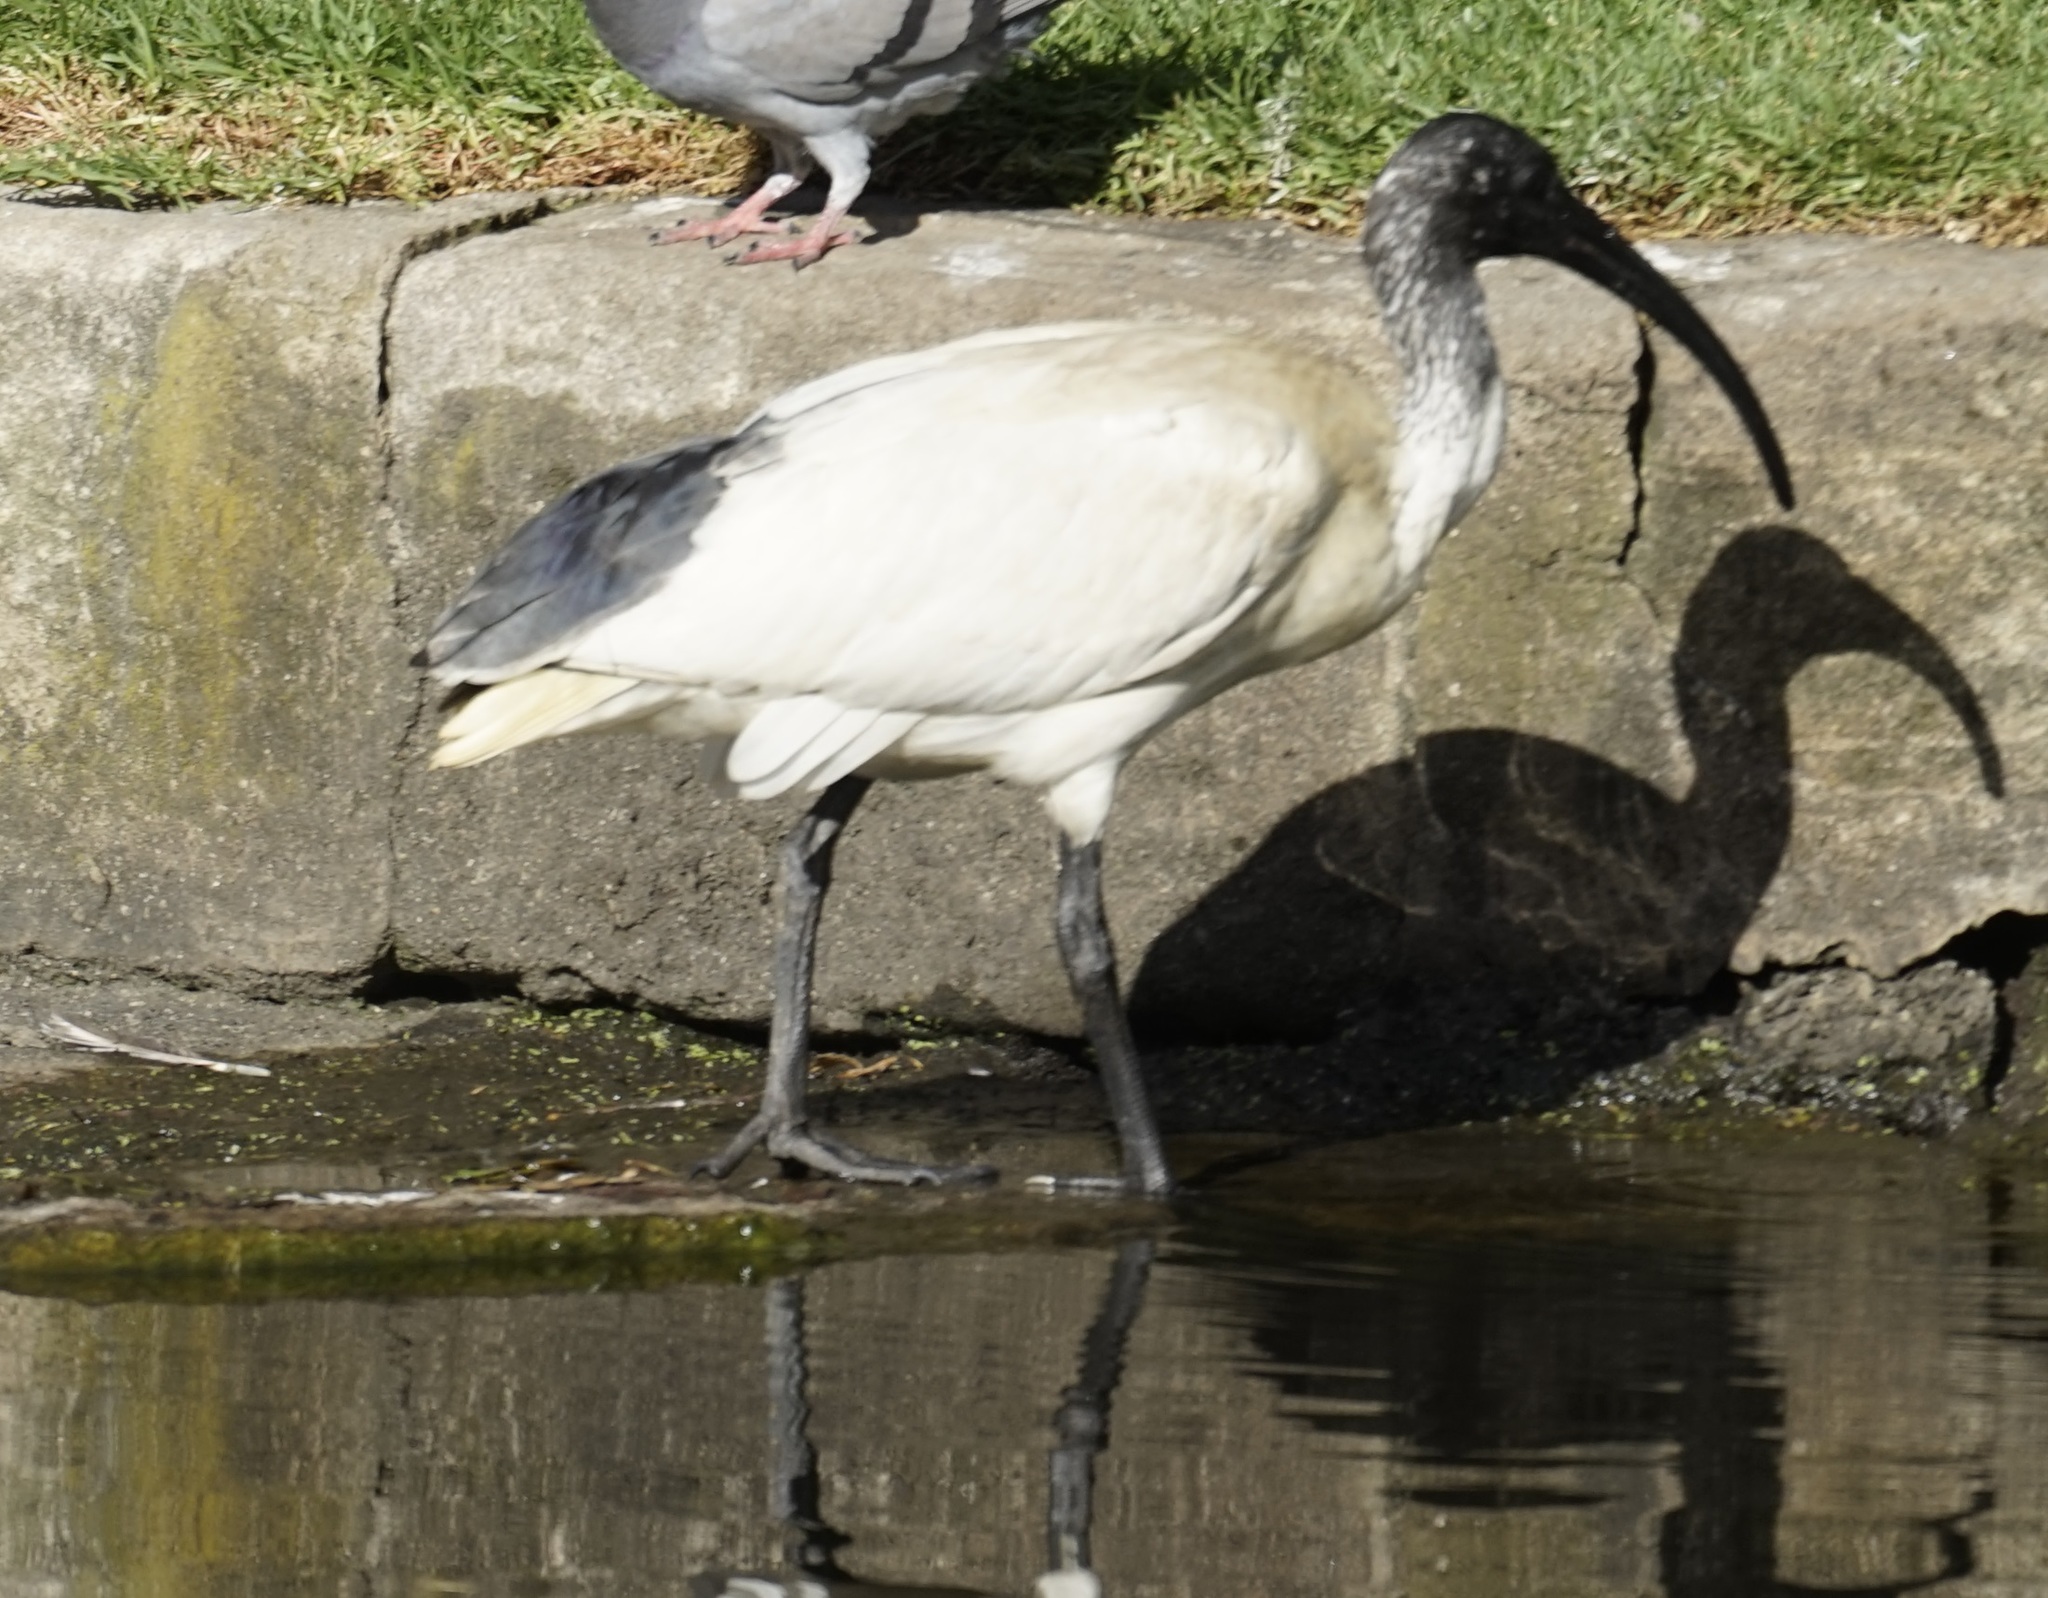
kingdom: Animalia
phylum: Chordata
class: Aves
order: Pelecaniformes
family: Threskiornithidae
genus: Threskiornis
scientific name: Threskiornis molucca
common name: Australian white ibis
